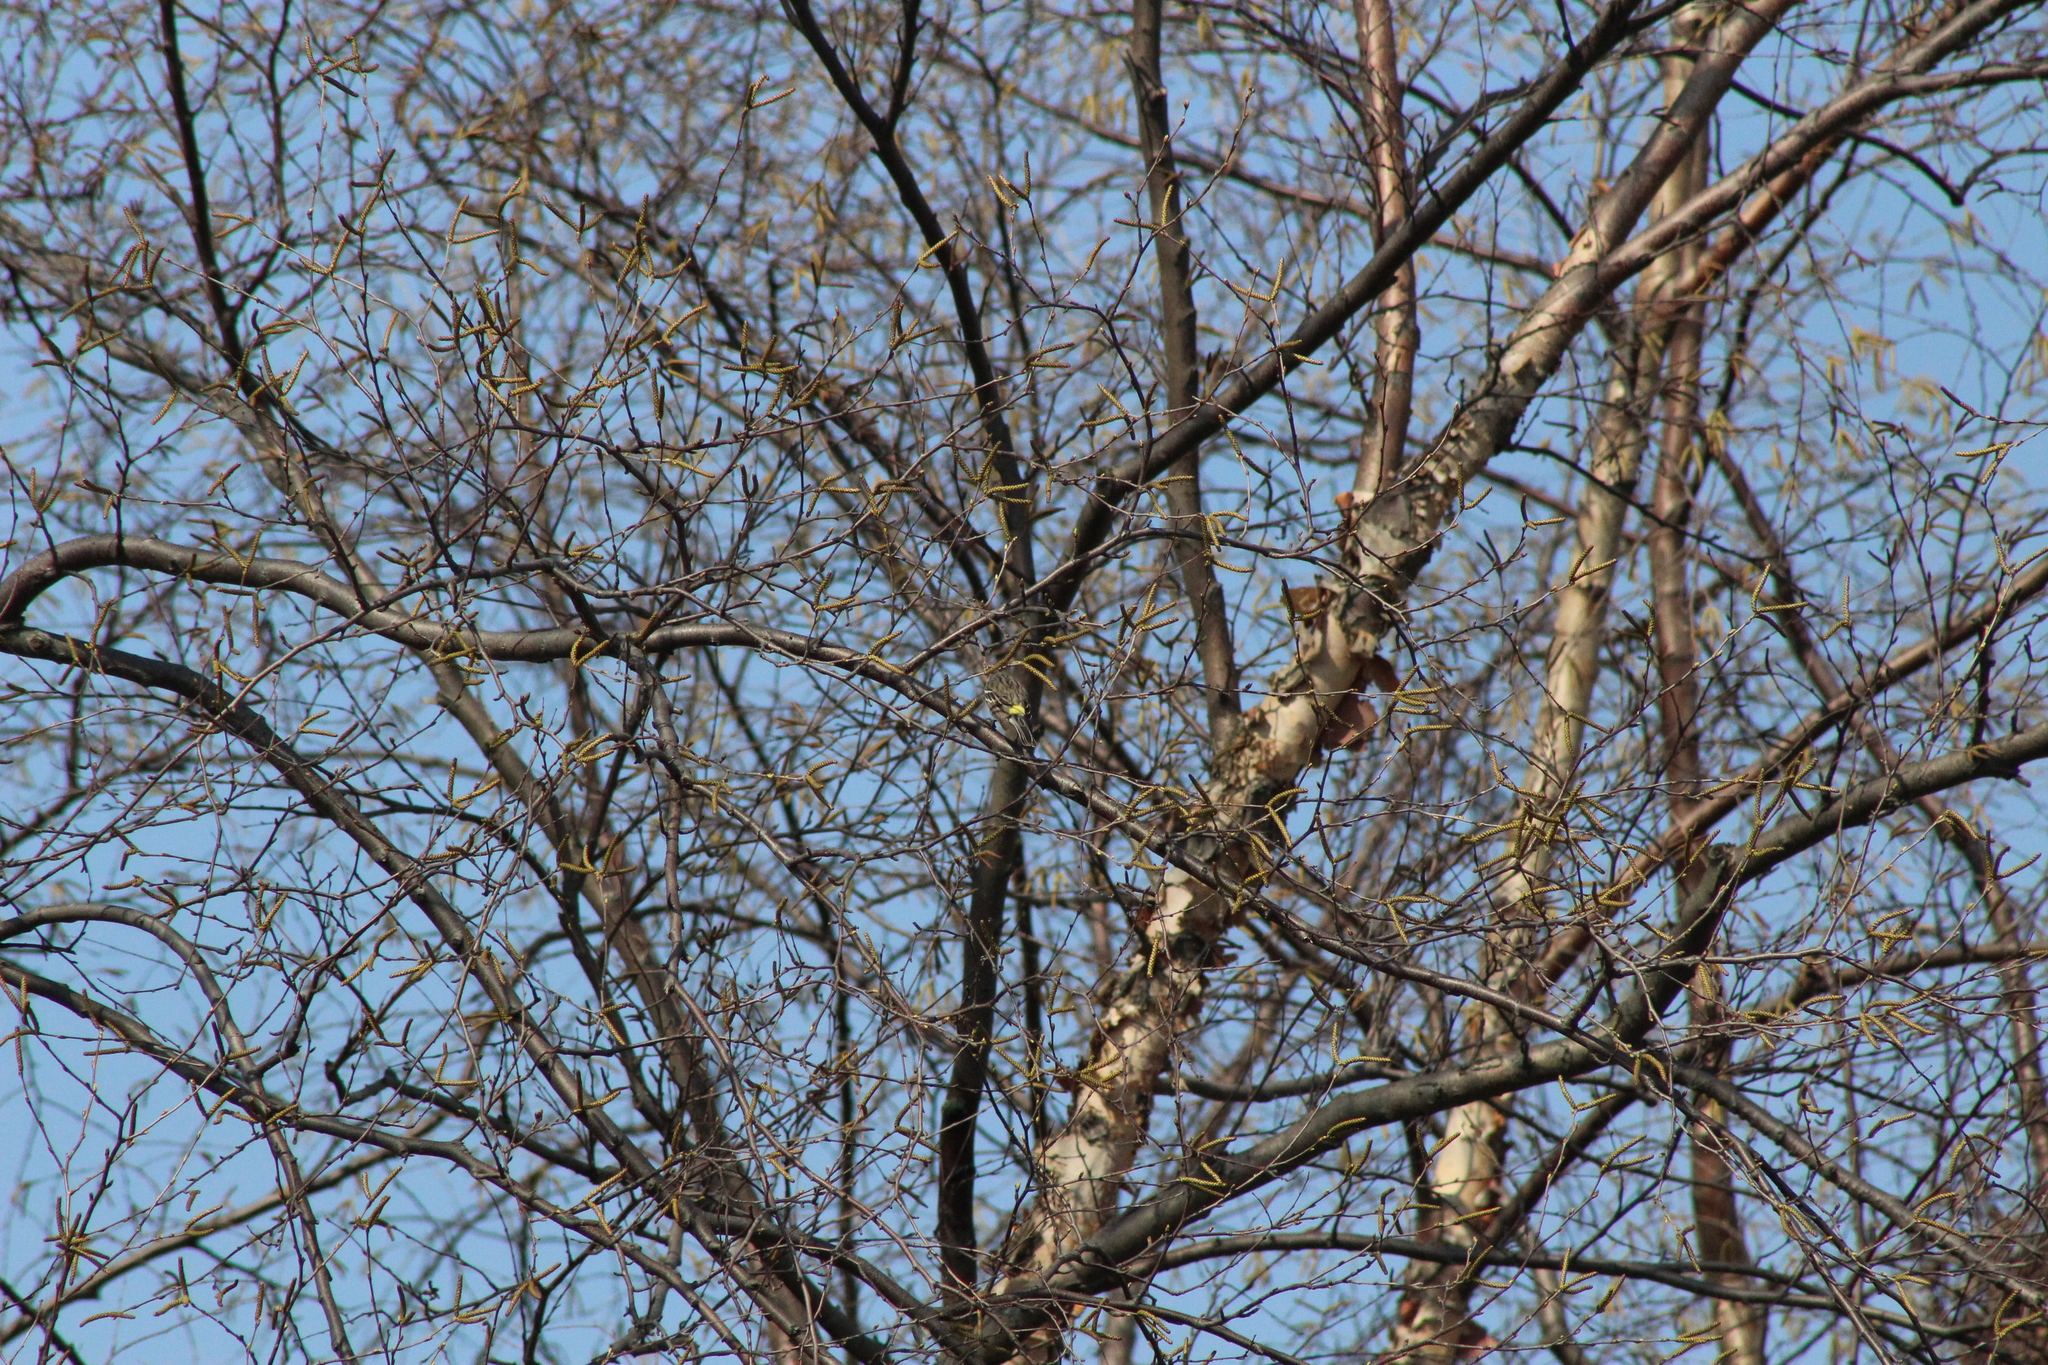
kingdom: Animalia
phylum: Chordata
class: Aves
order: Passeriformes
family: Parulidae
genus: Setophaga
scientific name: Setophaga coronata
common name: Myrtle warbler
